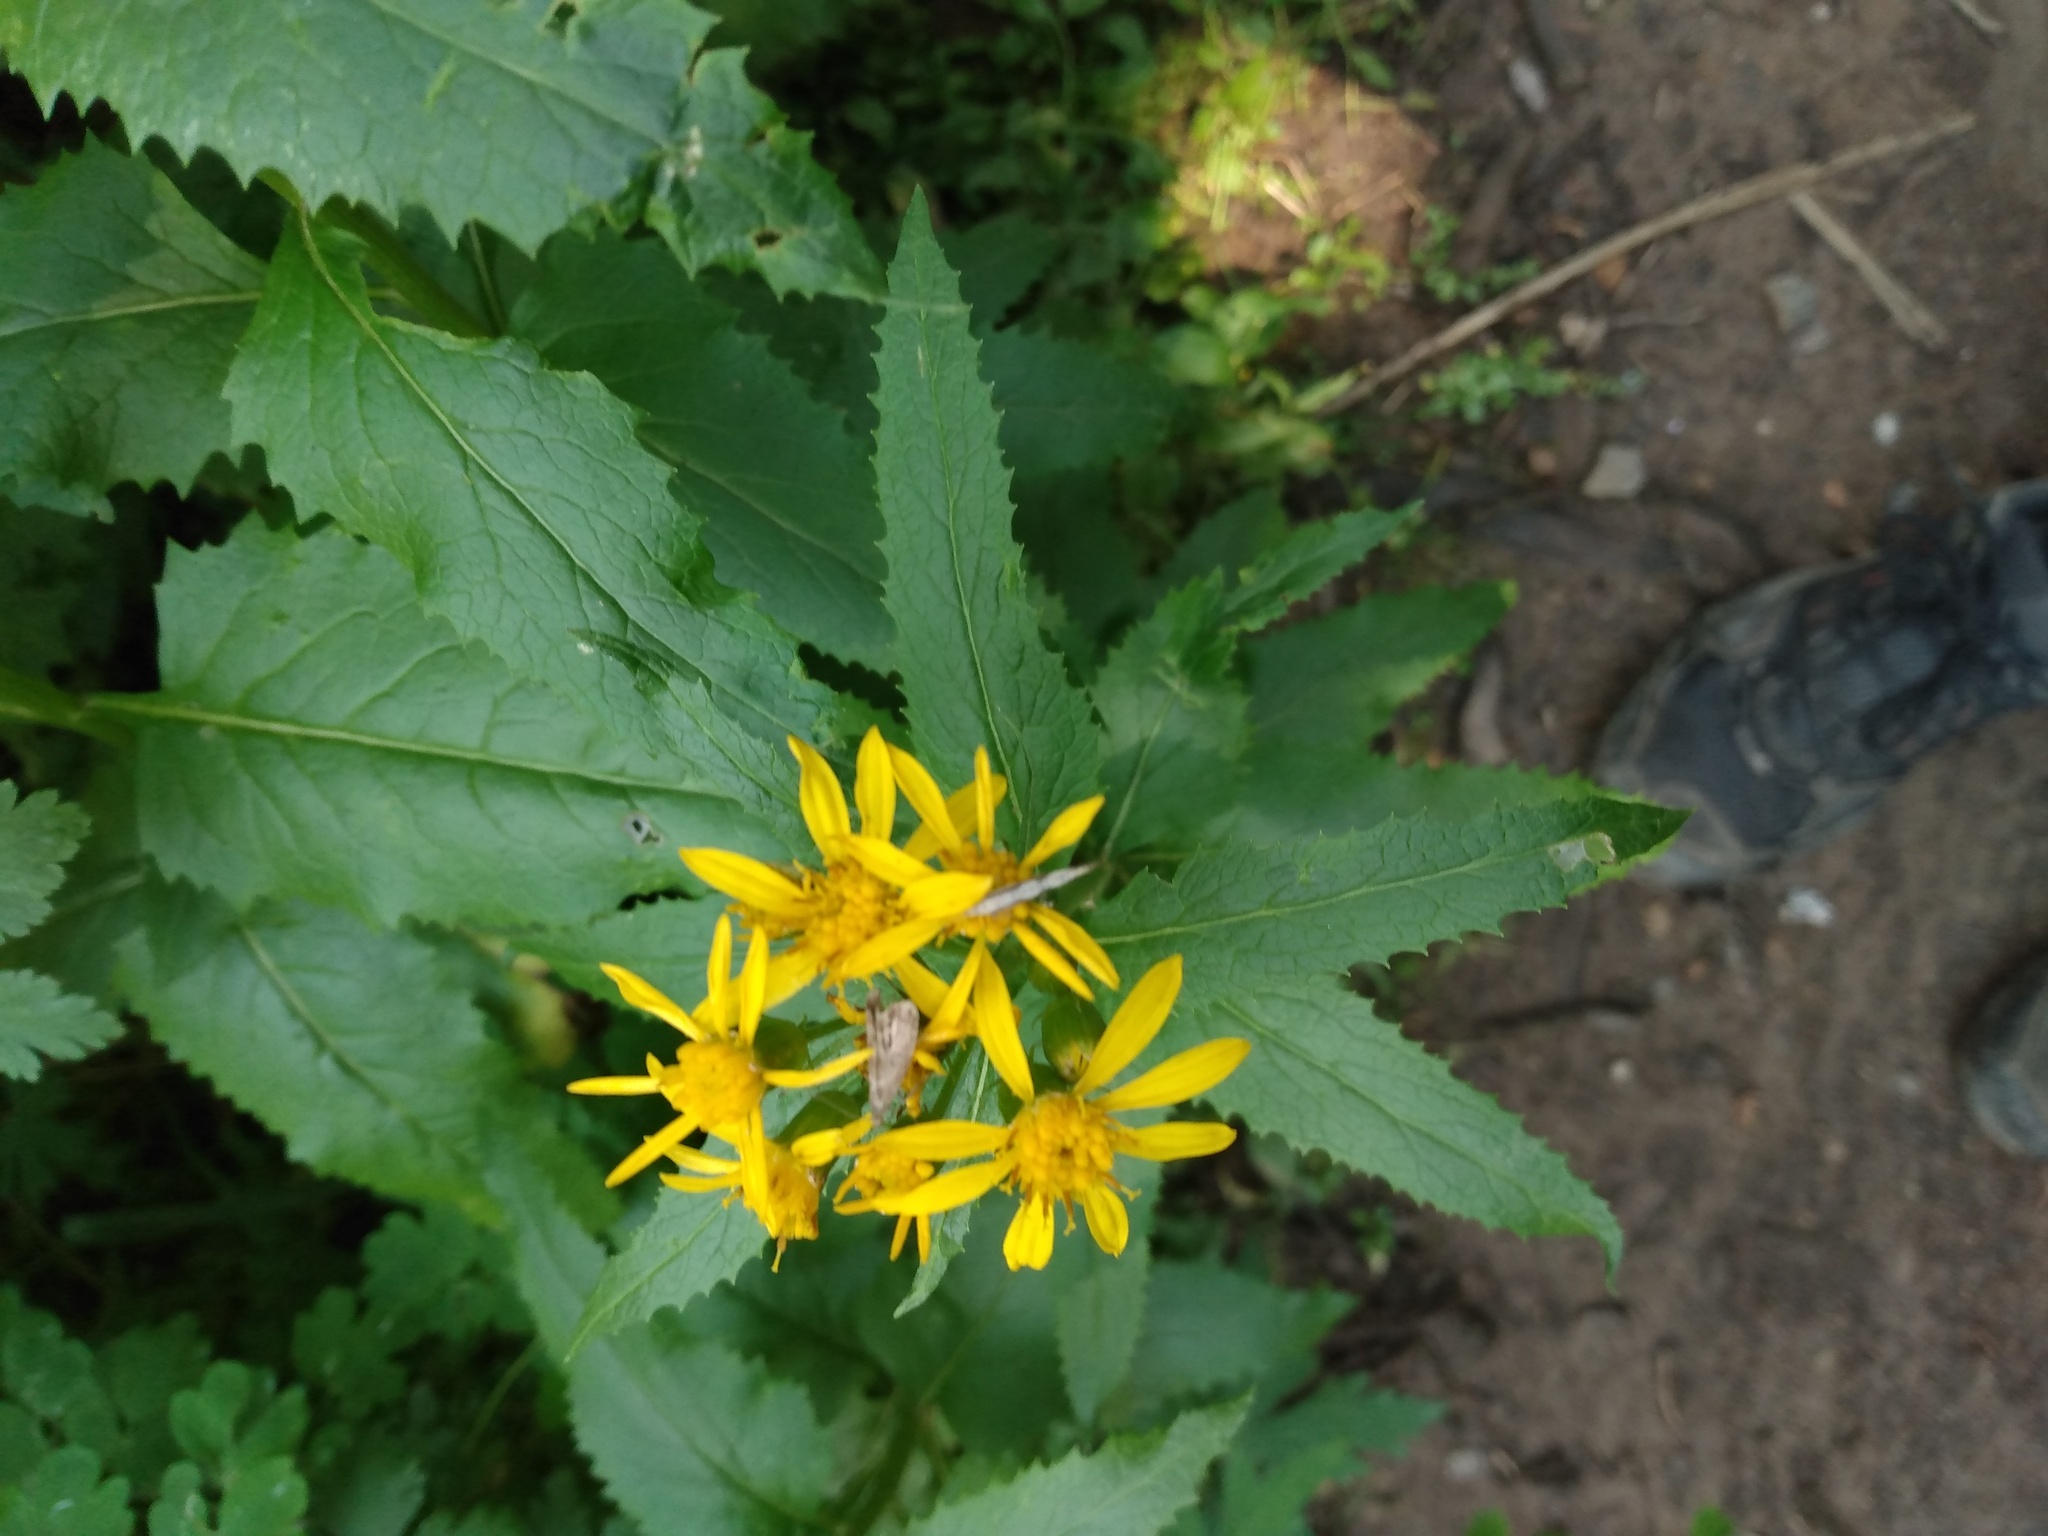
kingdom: Plantae
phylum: Tracheophyta
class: Magnoliopsida
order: Asterales
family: Asteraceae
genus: Senecio
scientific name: Senecio triangularis
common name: Arrowleaf butterweed
